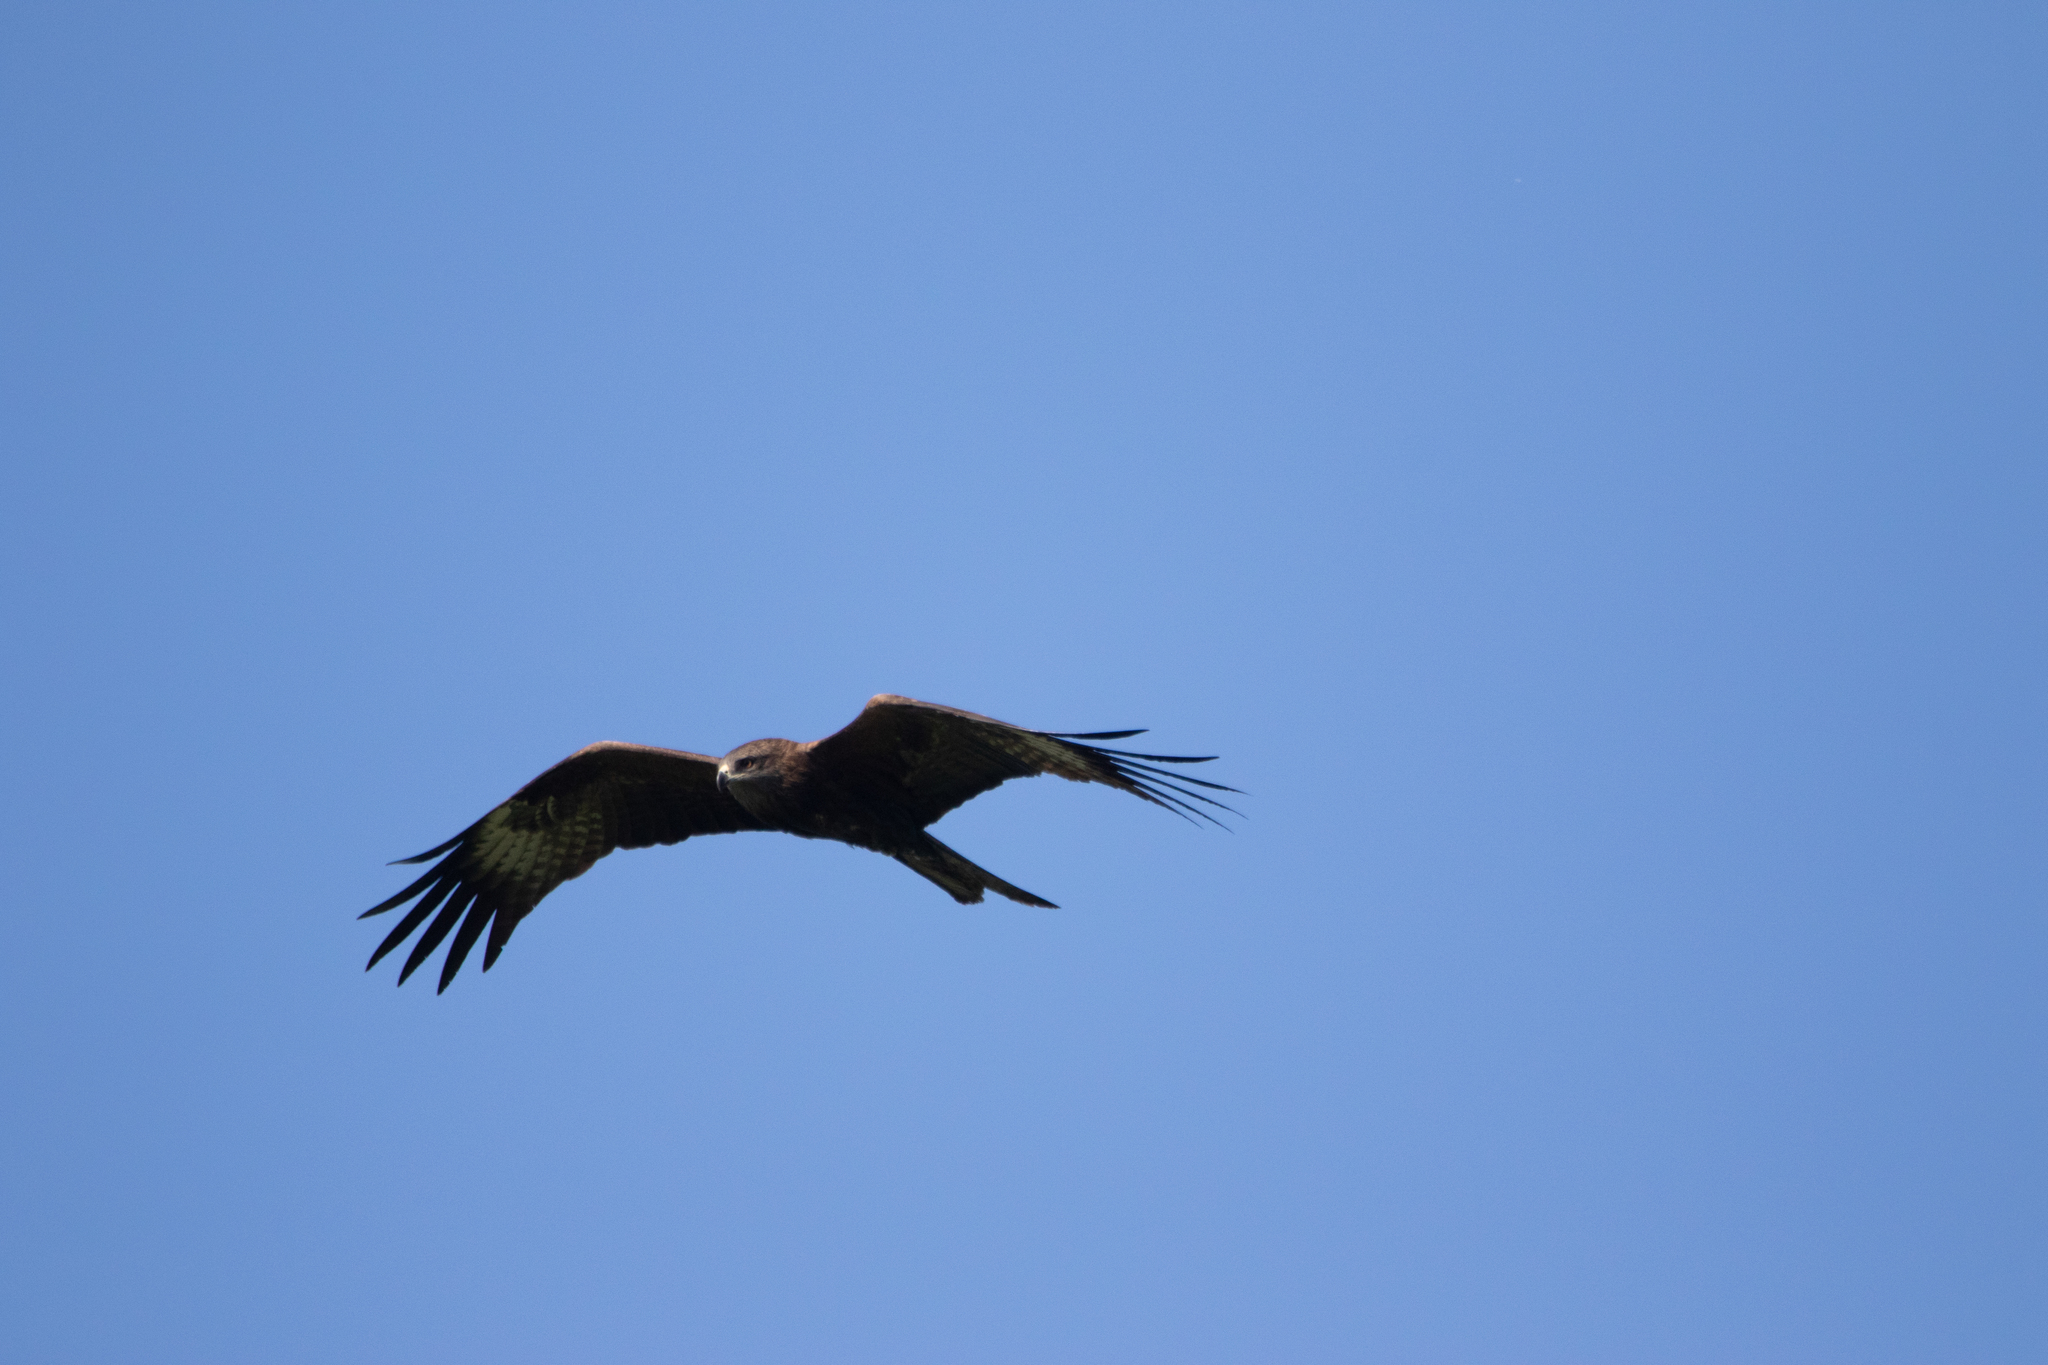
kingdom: Animalia
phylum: Chordata
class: Aves
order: Accipitriformes
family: Accipitridae
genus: Milvus
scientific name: Milvus migrans
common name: Black kite
